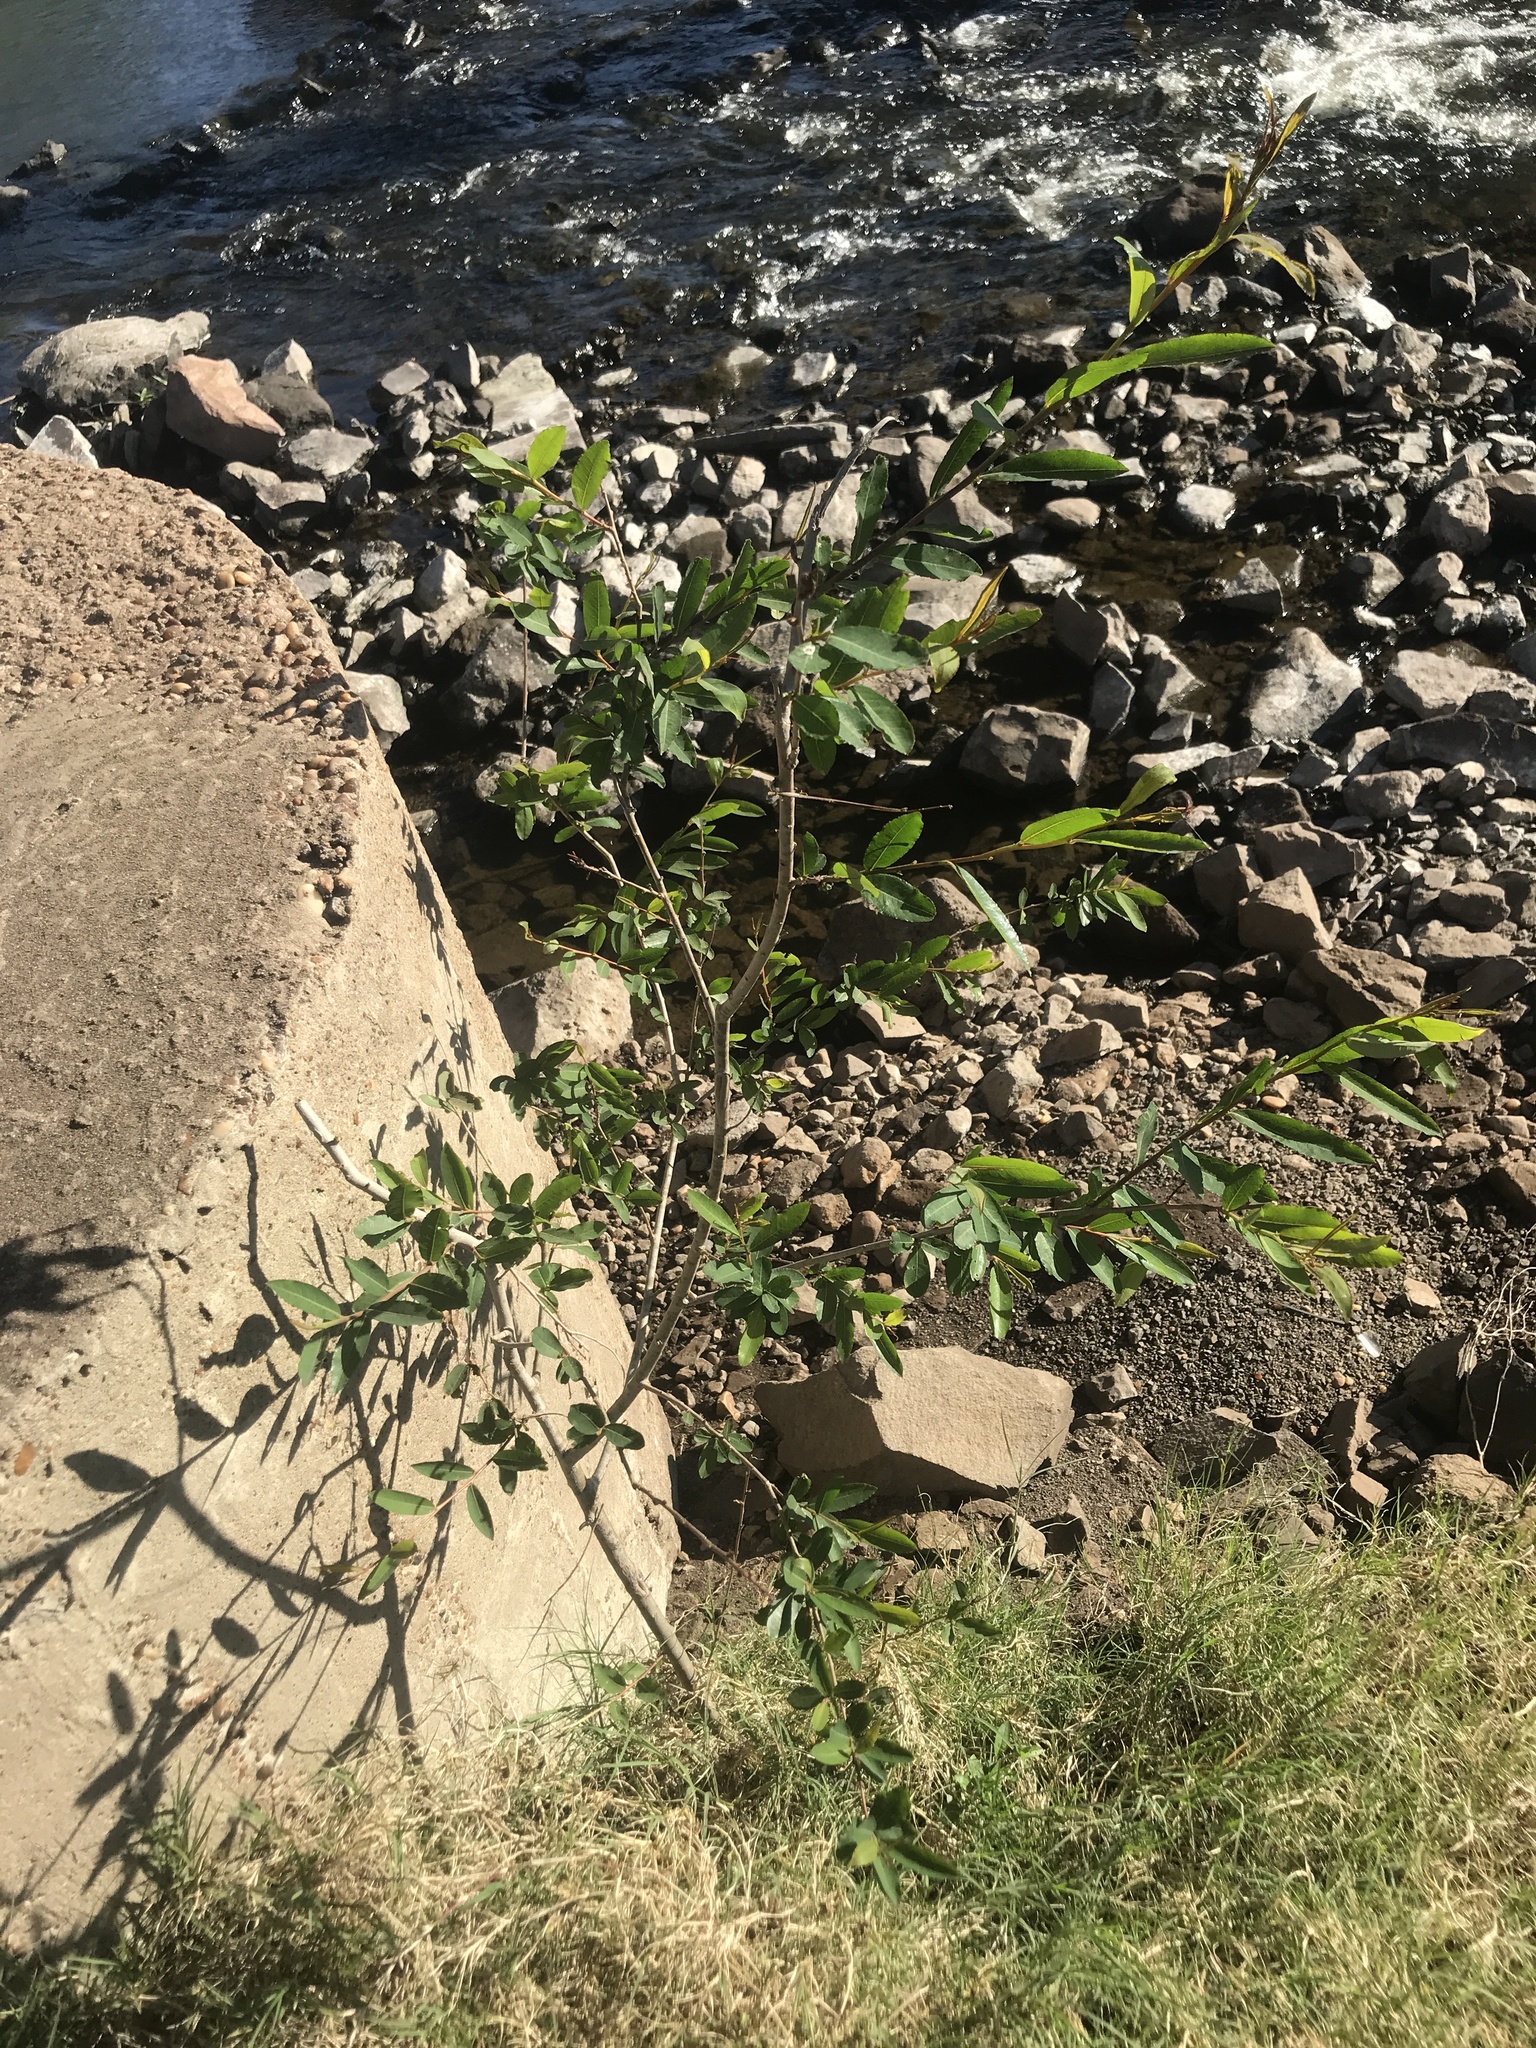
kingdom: Plantae
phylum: Tracheophyta
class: Magnoliopsida
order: Malpighiales
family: Phyllanthaceae
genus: Phyllanthus
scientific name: Phyllanthus sellowianus
